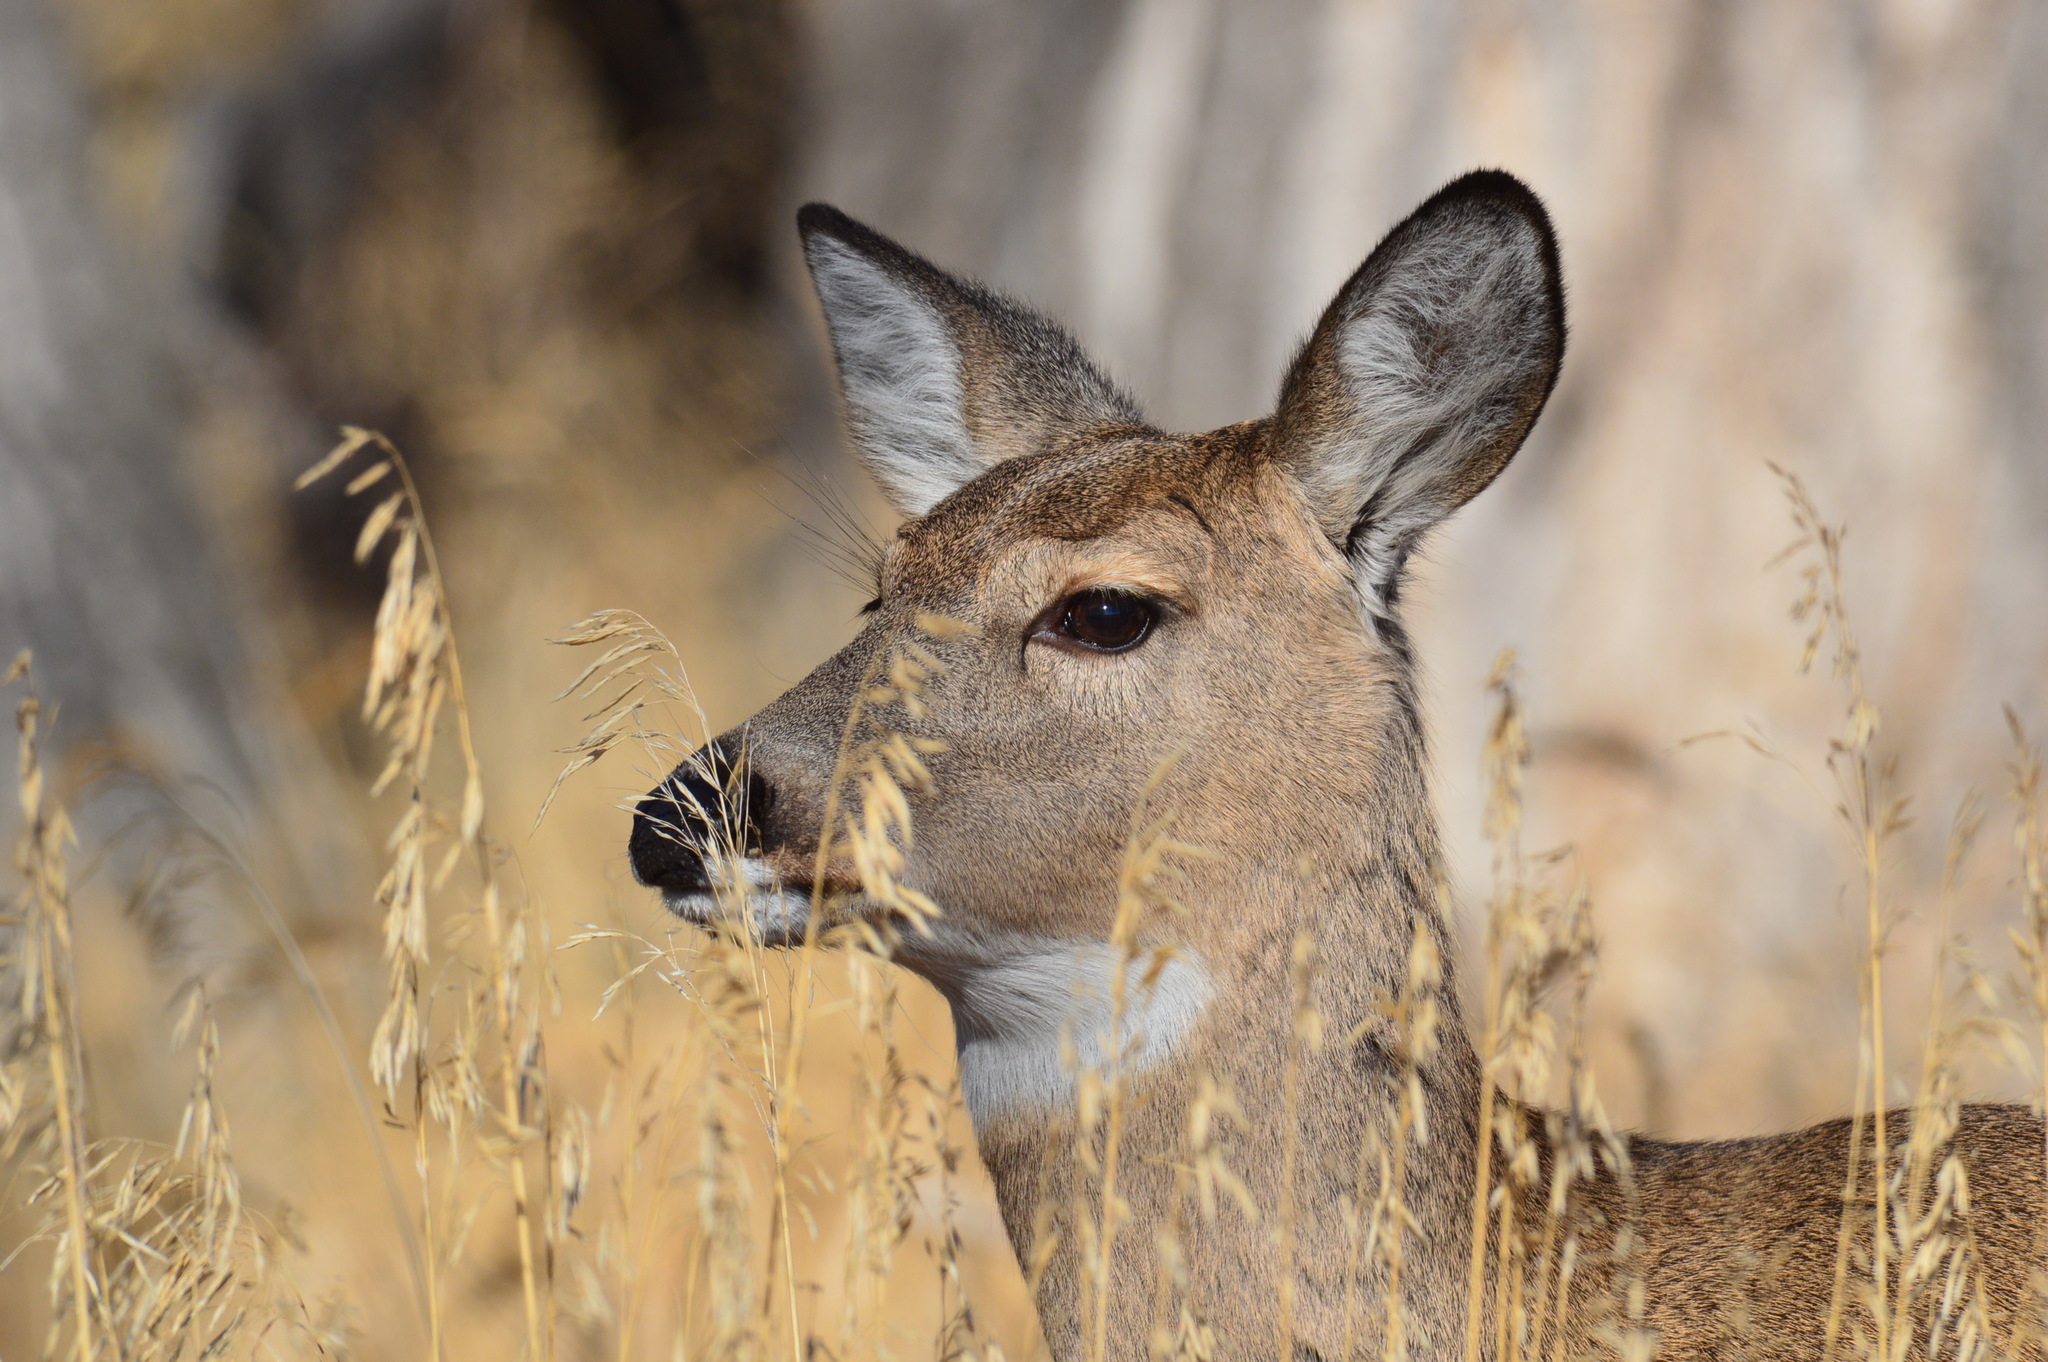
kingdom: Animalia
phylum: Chordata
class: Mammalia
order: Artiodactyla
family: Cervidae
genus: Odocoileus
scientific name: Odocoileus virginianus
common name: White-tailed deer
